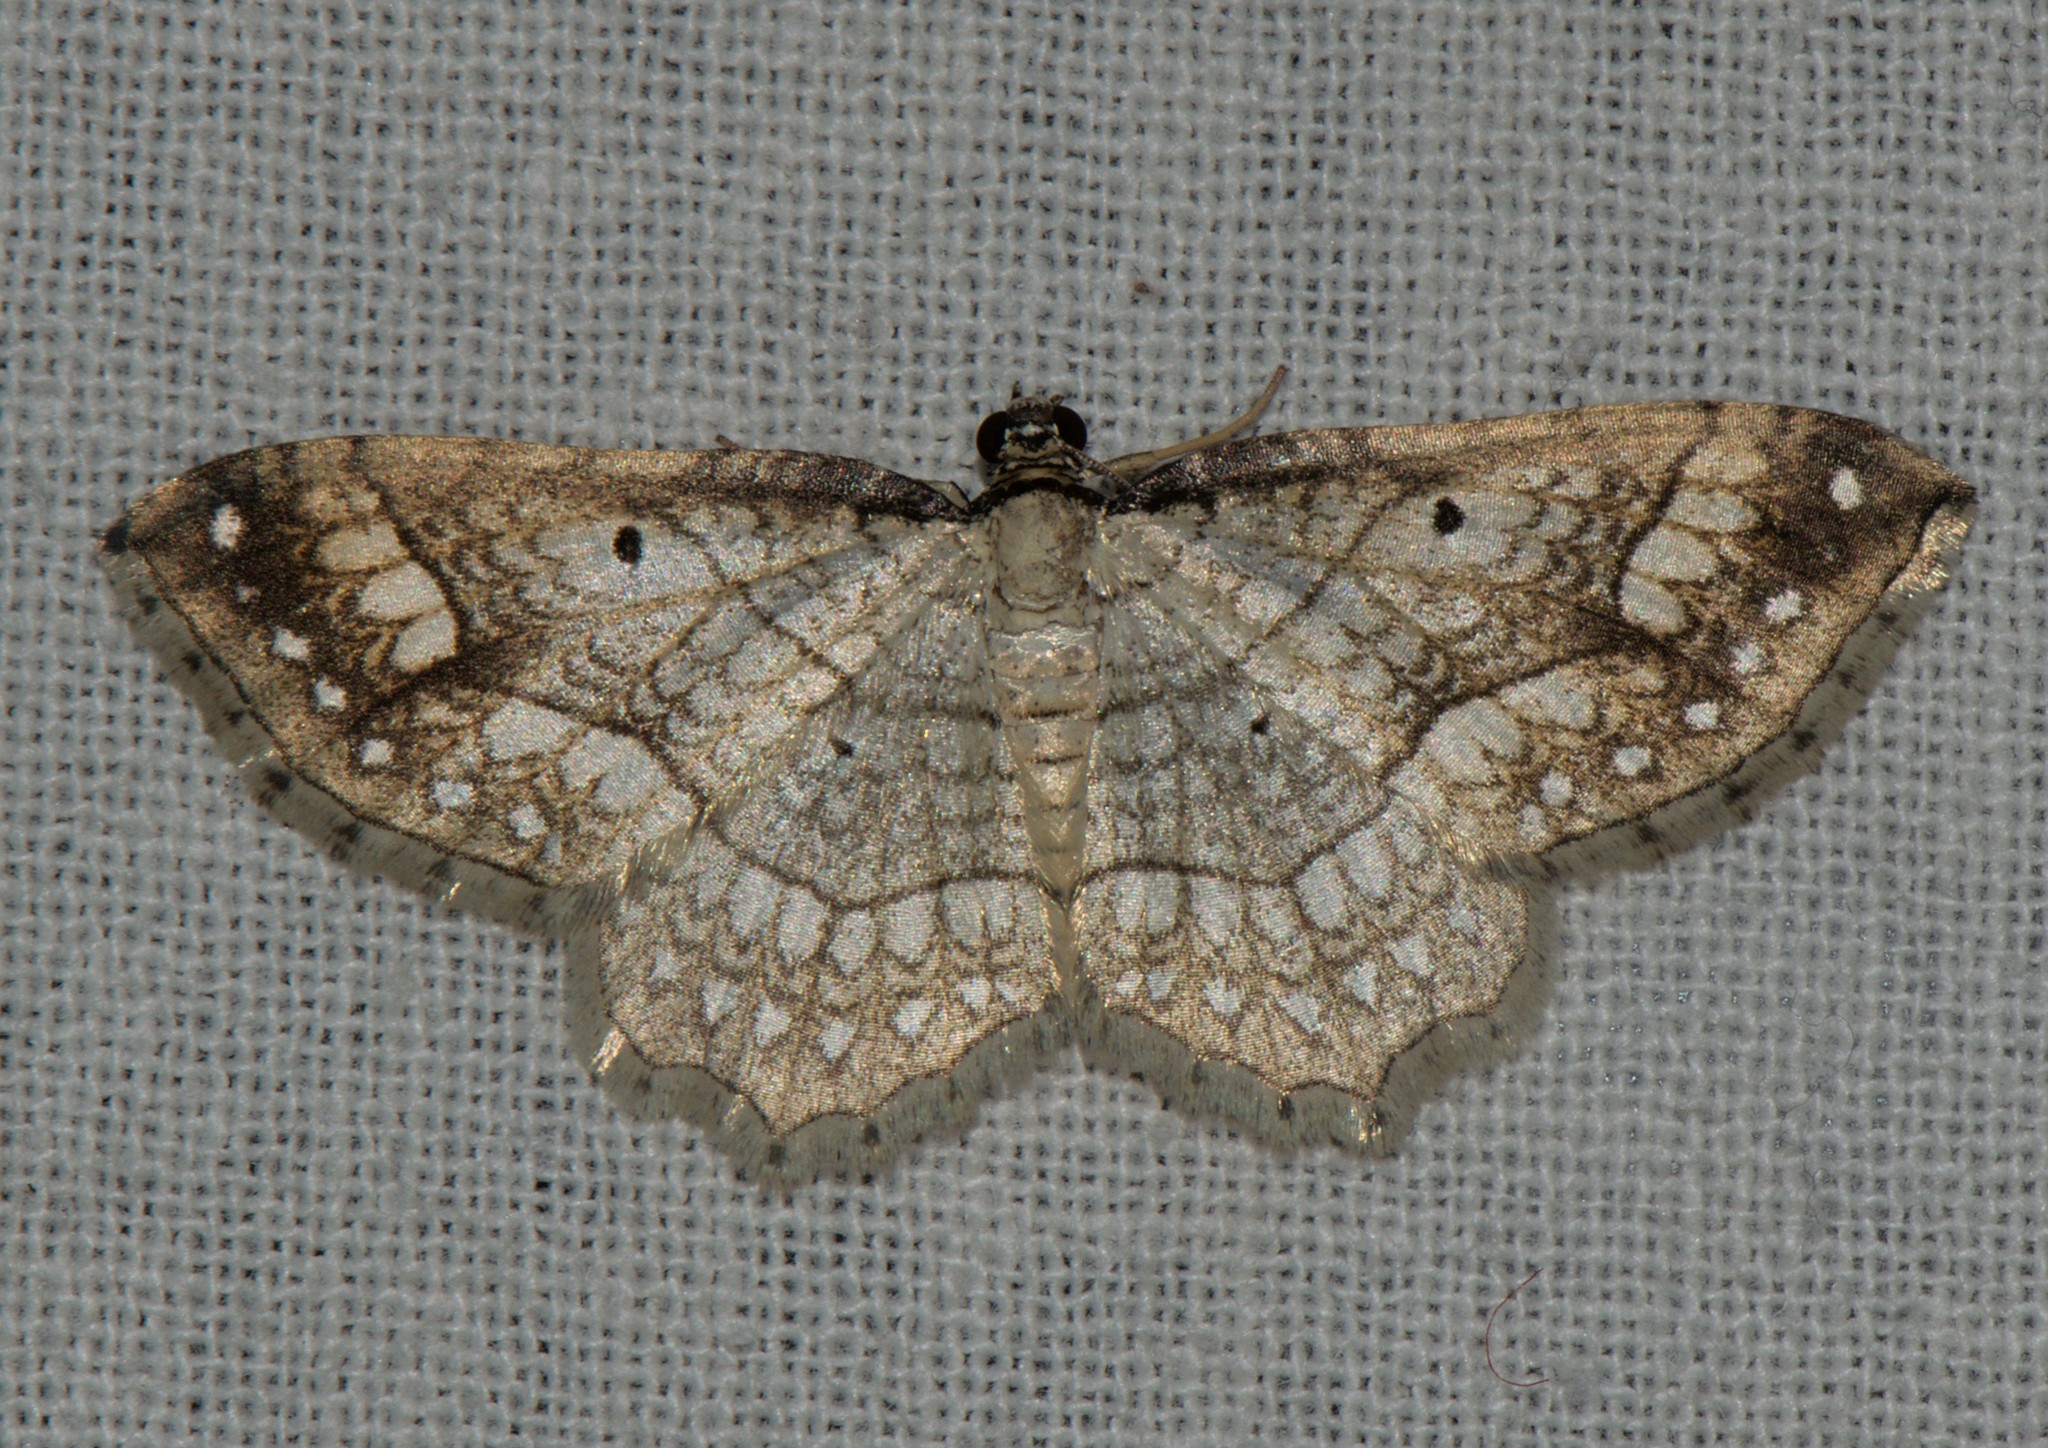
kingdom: Animalia
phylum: Arthropoda
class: Insecta
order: Lepidoptera
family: Geometridae
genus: Laciniodes
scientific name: Laciniodes plurilinearia
